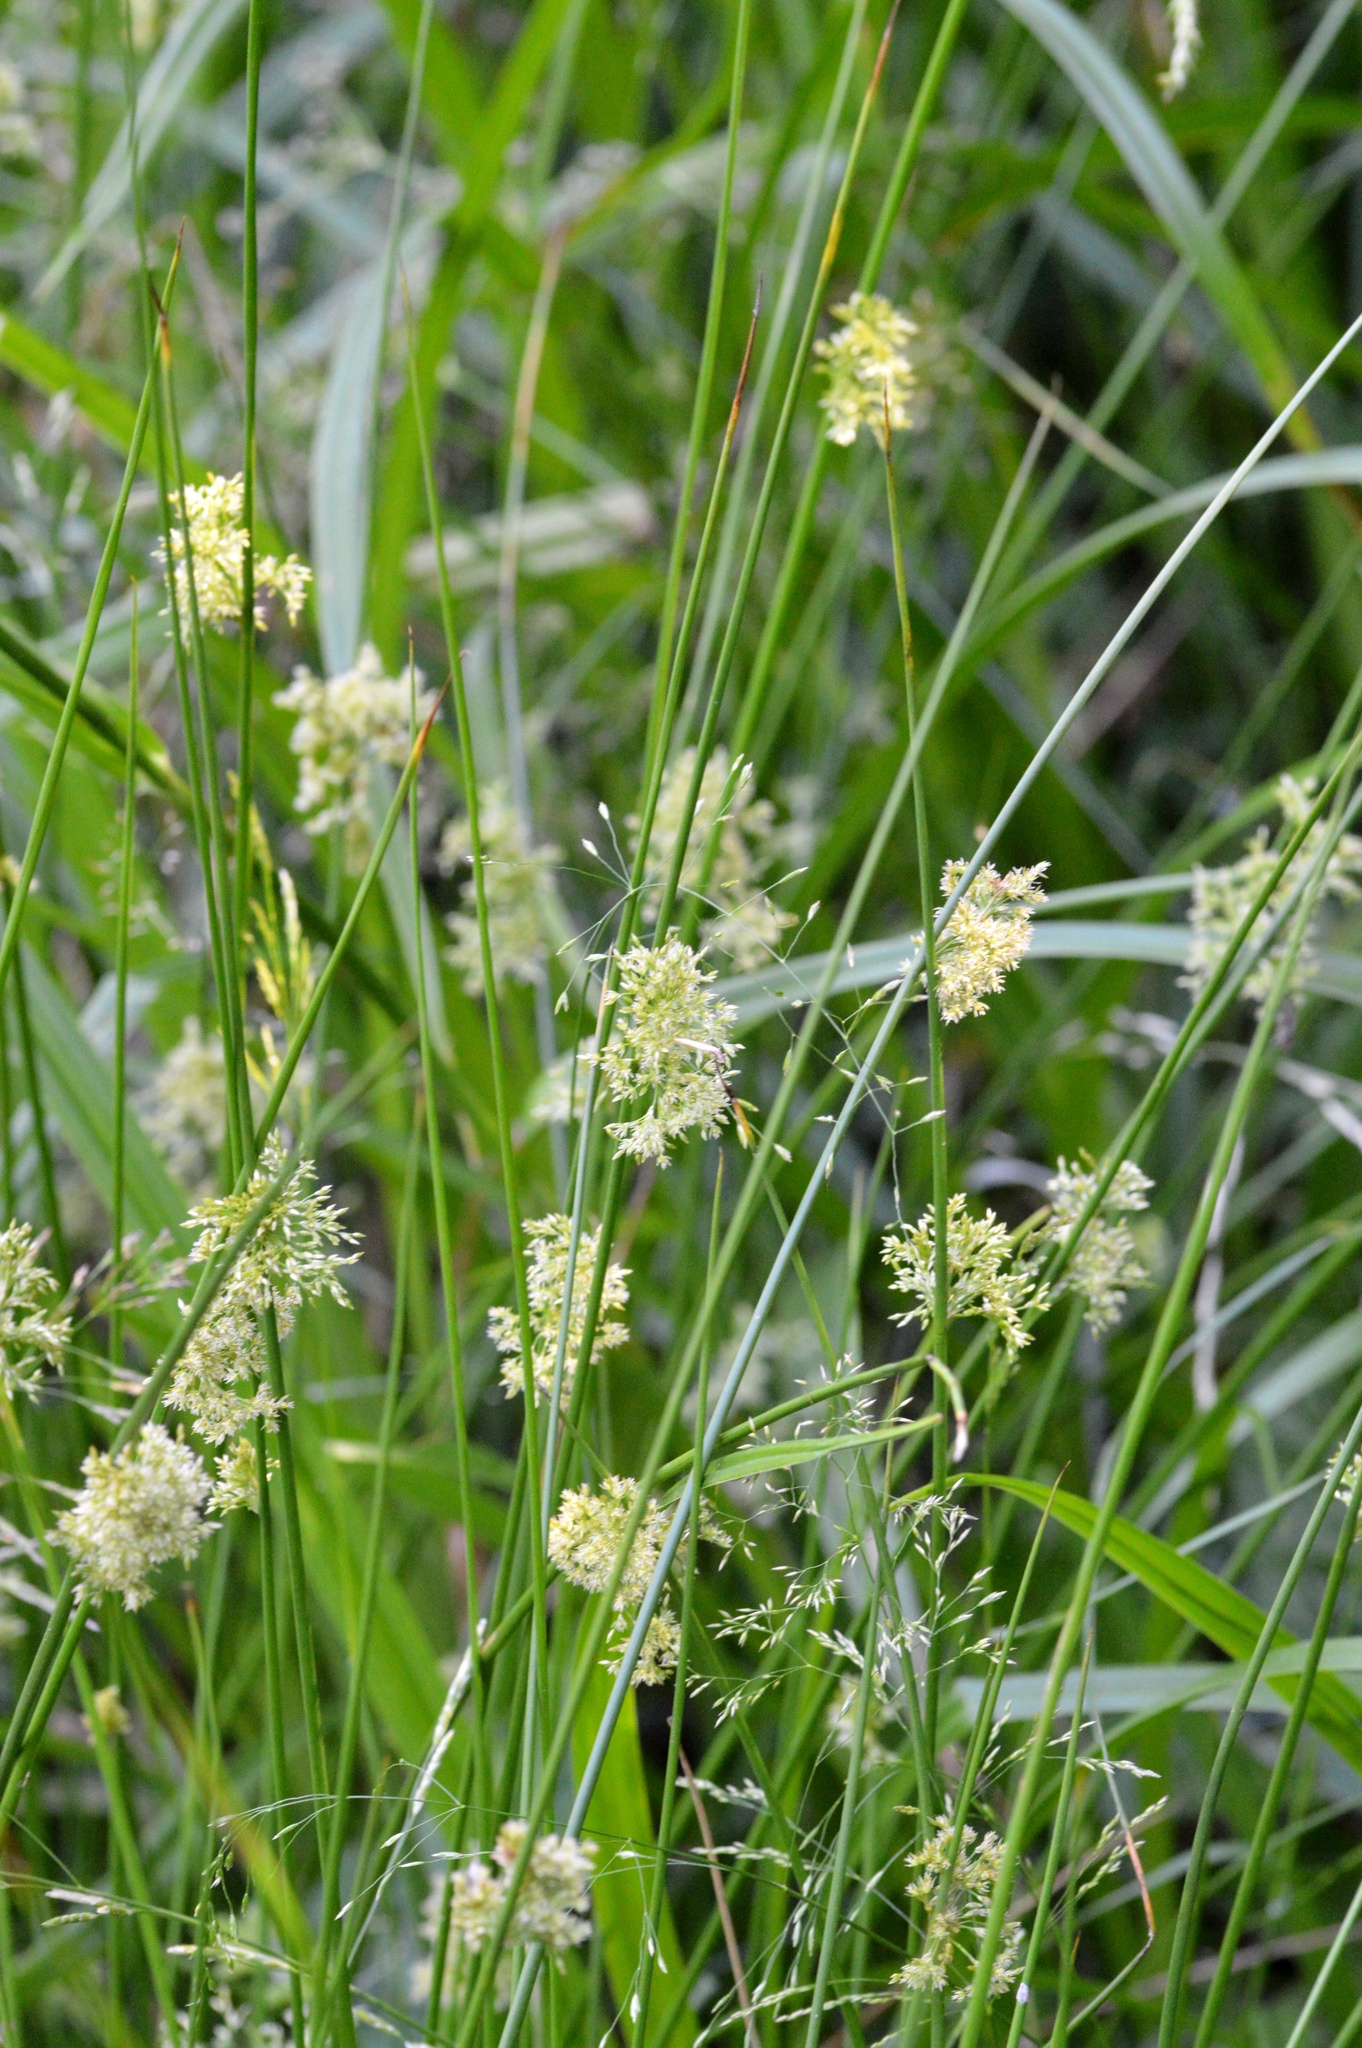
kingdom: Plantae
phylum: Tracheophyta
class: Liliopsida
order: Poales
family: Juncaceae
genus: Juncus
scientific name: Juncus effusus
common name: Soft rush
